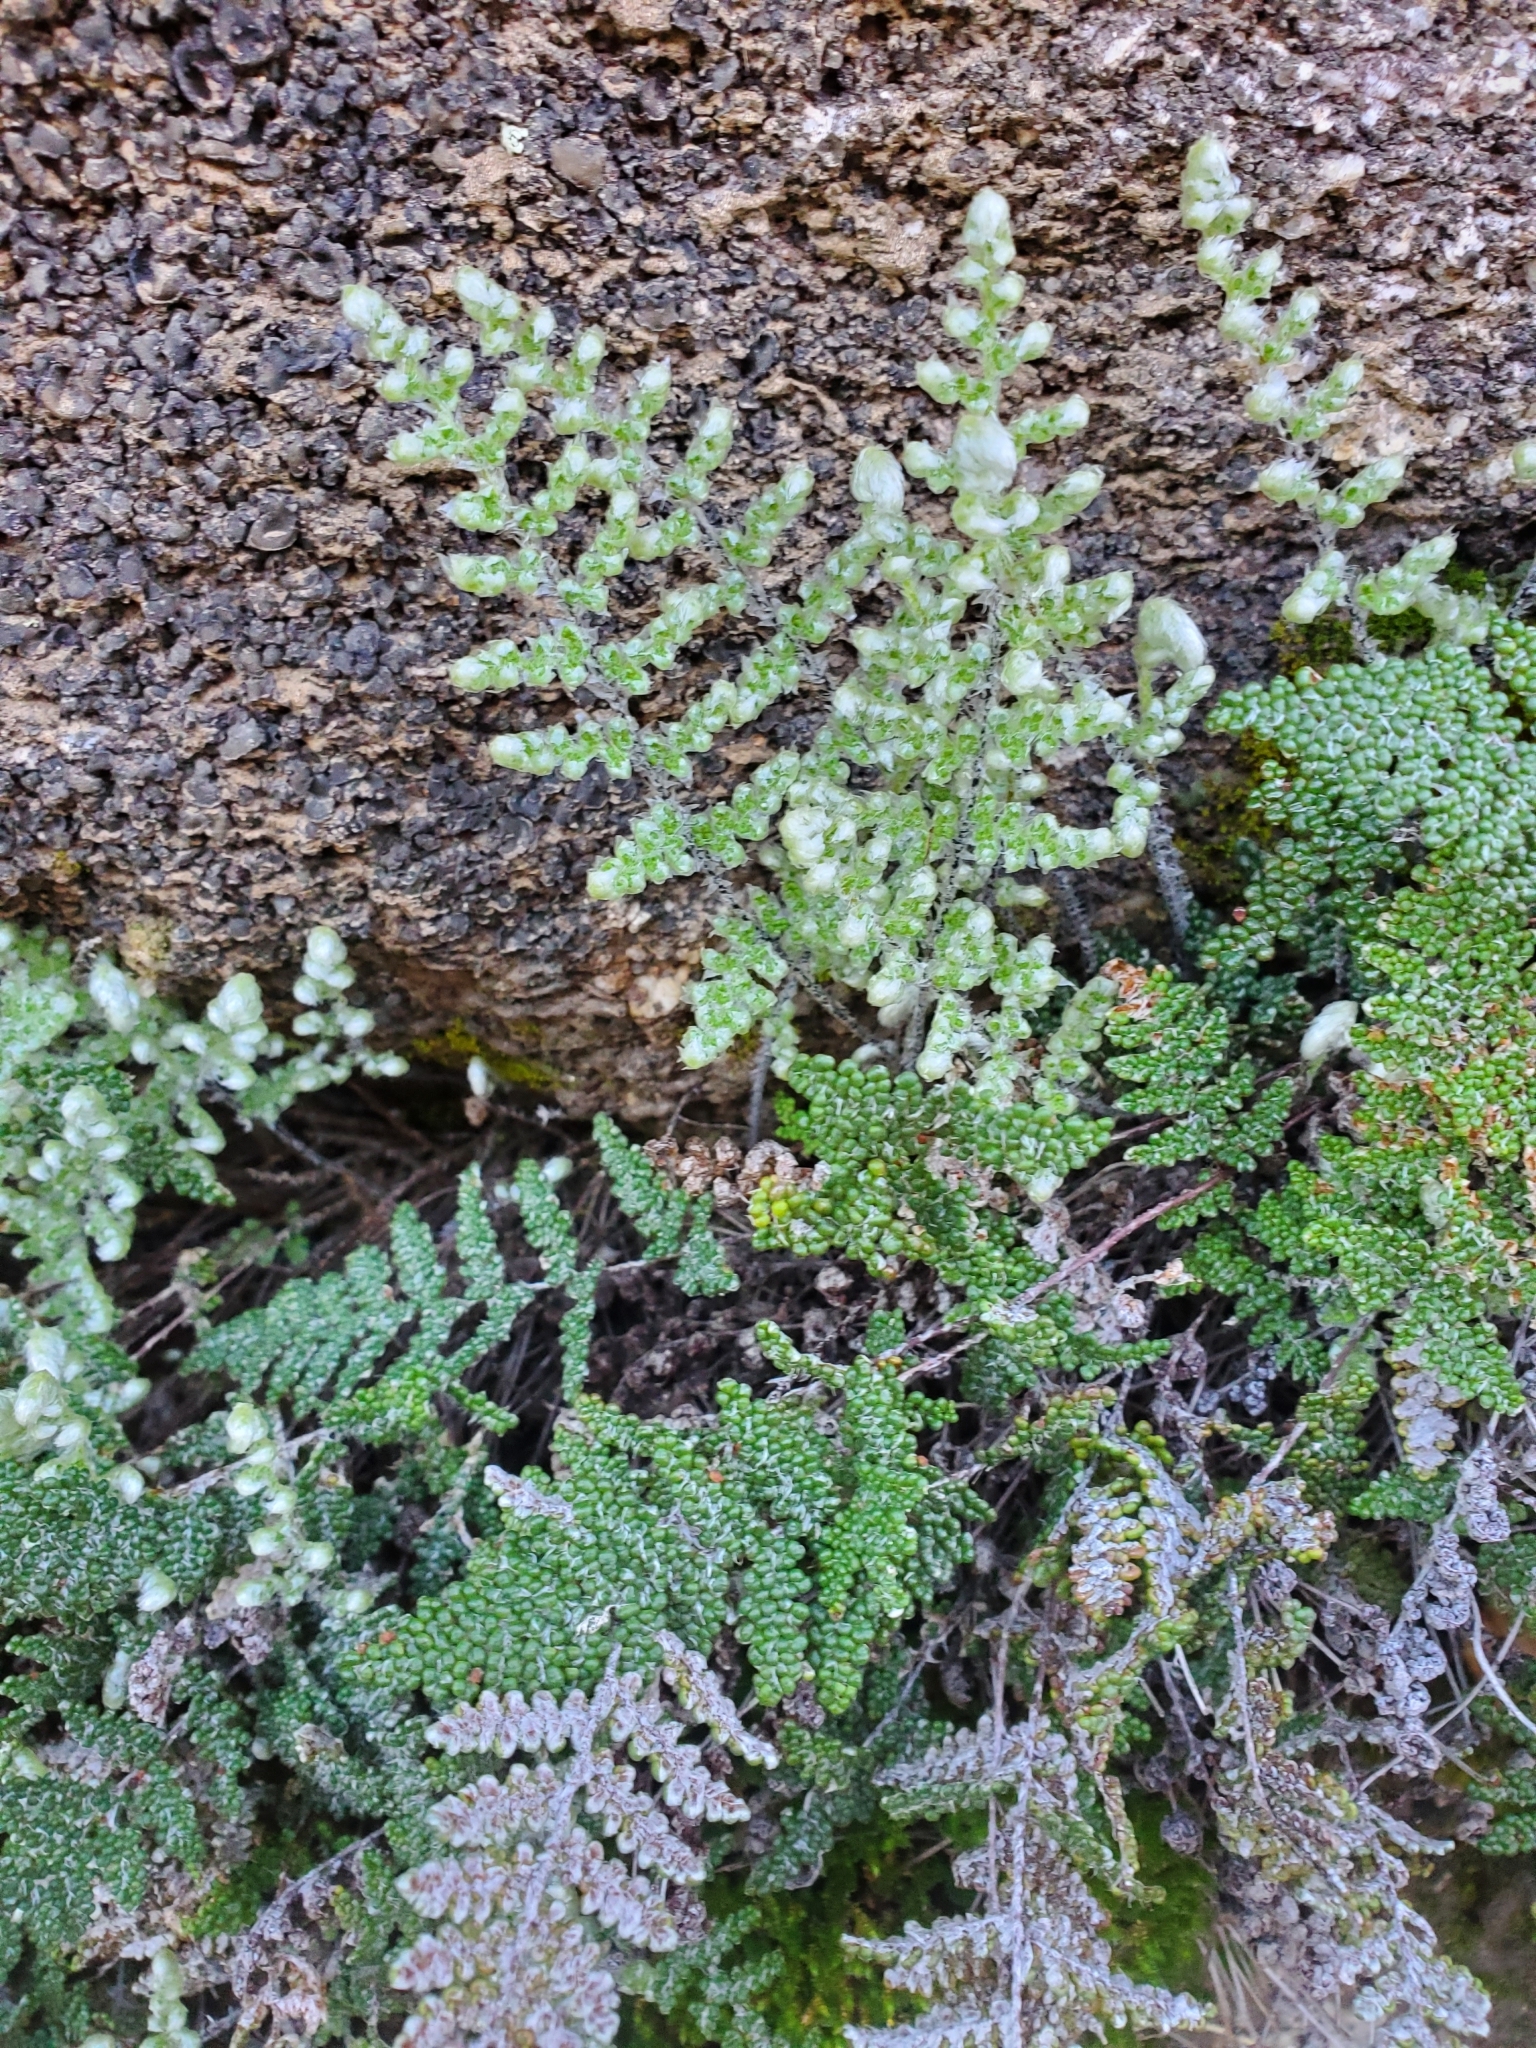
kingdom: Plantae
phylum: Tracheophyta
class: Polypodiopsida
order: Polypodiales
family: Pteridaceae
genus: Myriopteris
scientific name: Myriopteris covillei
